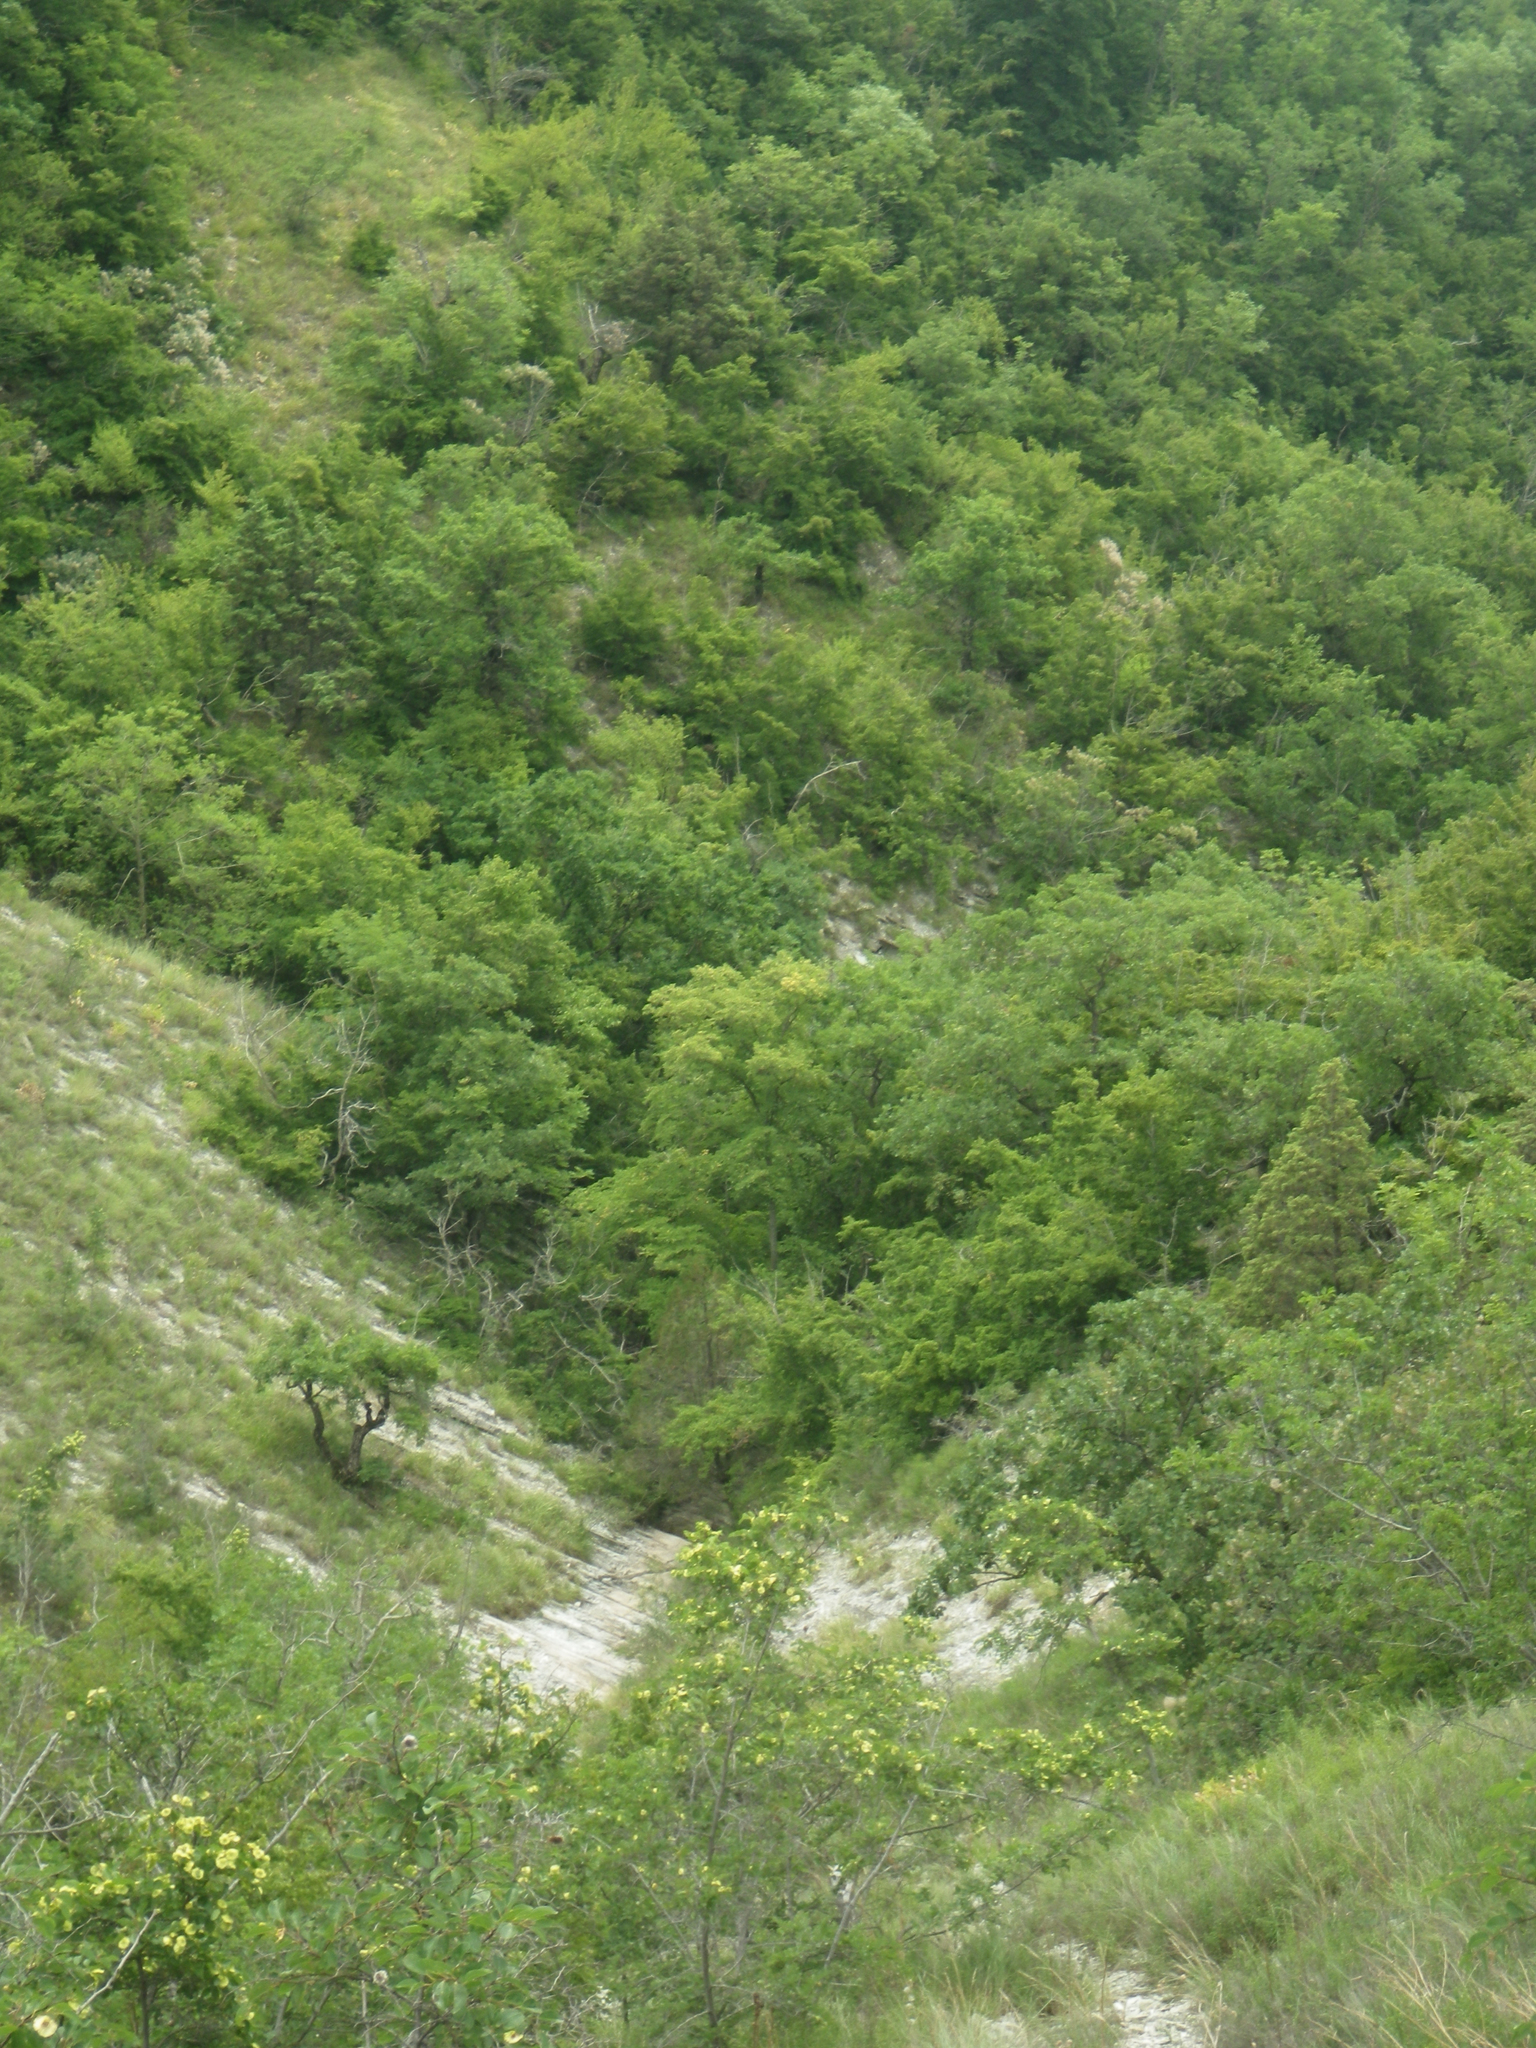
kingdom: Plantae
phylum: Tracheophyta
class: Magnoliopsida
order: Rosales
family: Rhamnaceae
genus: Paliurus
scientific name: Paliurus spina-christi
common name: Jeruselem thorn
